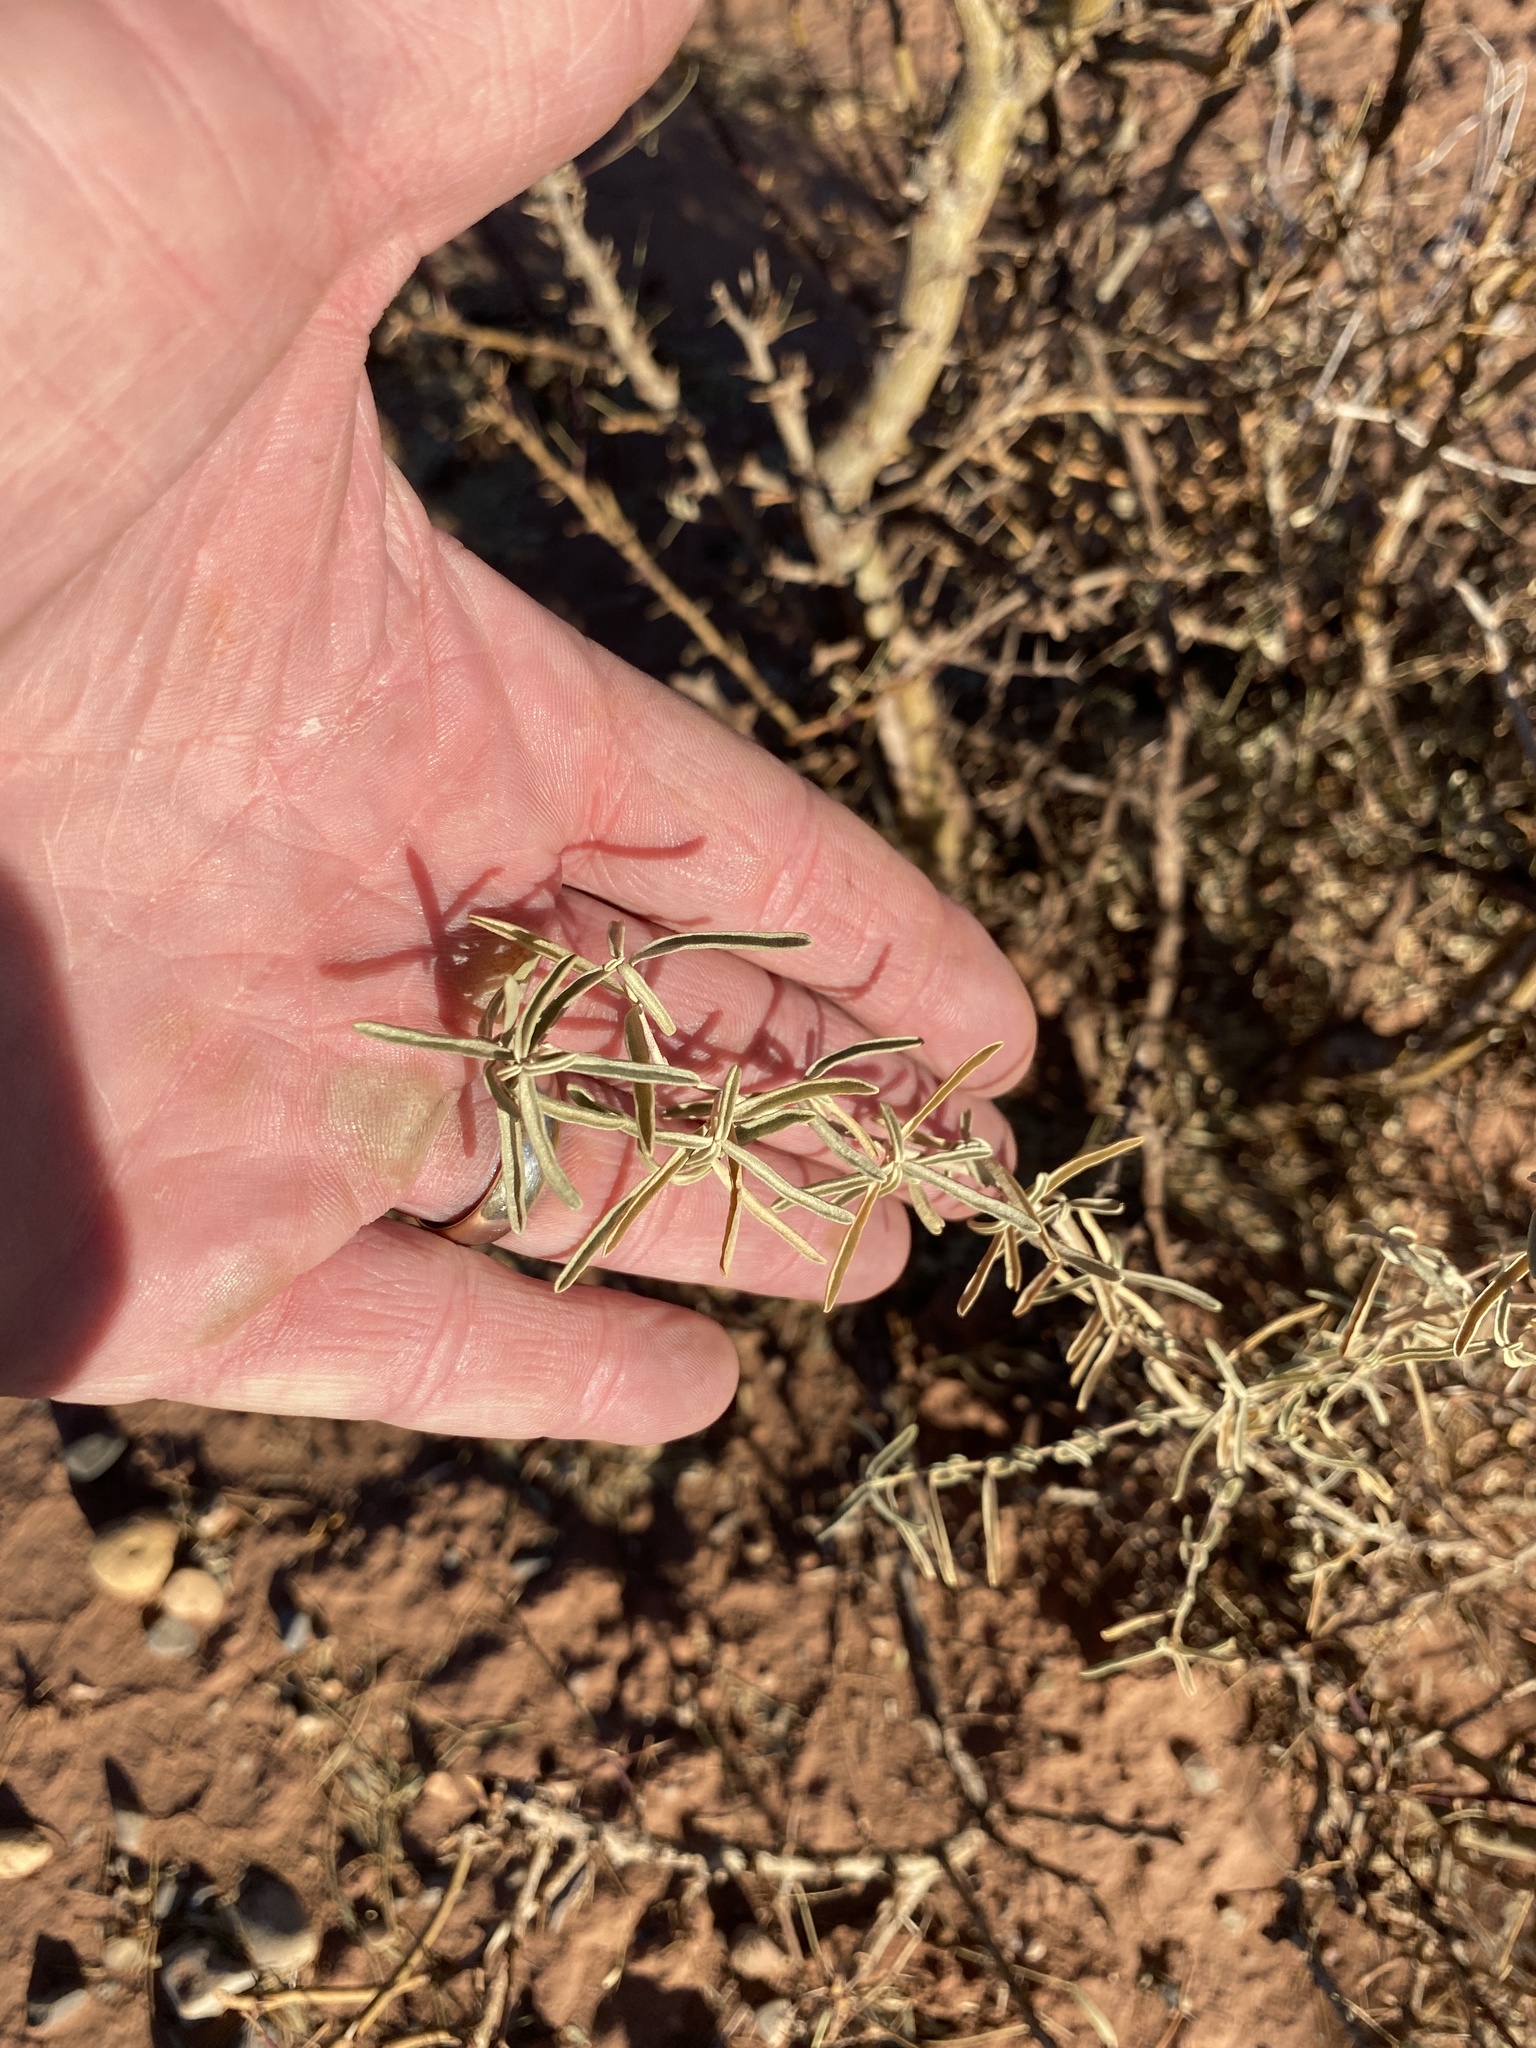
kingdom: Plantae
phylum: Tracheophyta
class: Magnoliopsida
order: Caryophyllales
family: Amaranthaceae
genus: Atriplex
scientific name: Atriplex canescens
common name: Four-wing saltbush
